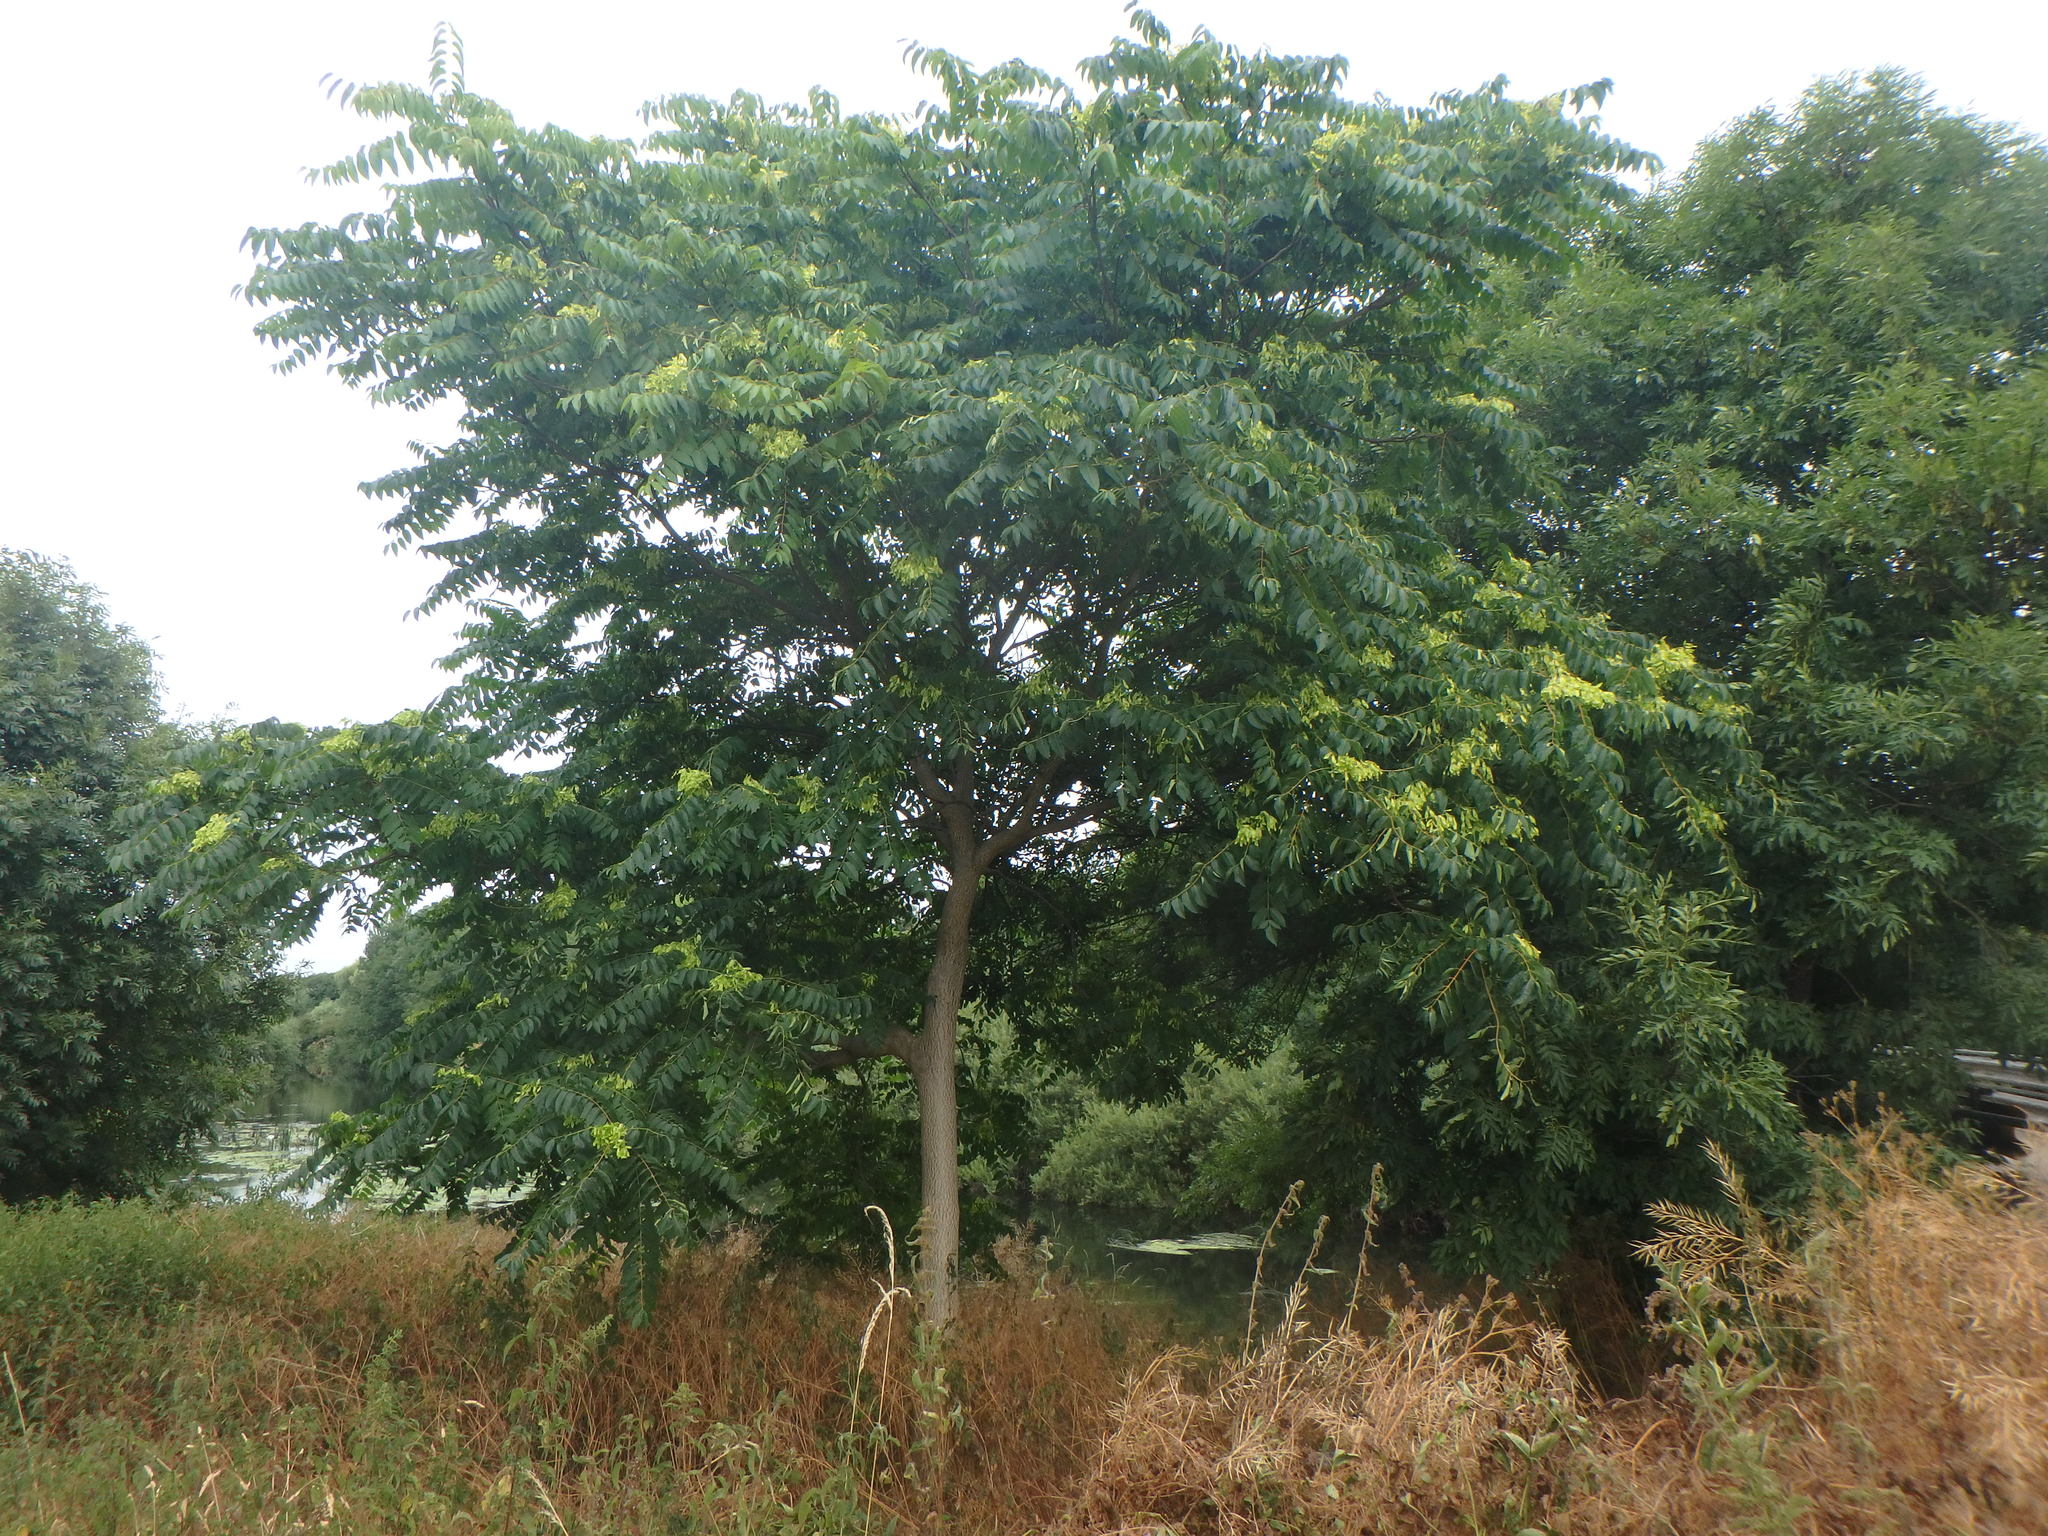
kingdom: Plantae
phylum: Tracheophyta
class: Magnoliopsida
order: Sapindales
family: Simaroubaceae
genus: Ailanthus
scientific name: Ailanthus altissima
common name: Tree-of-heaven
